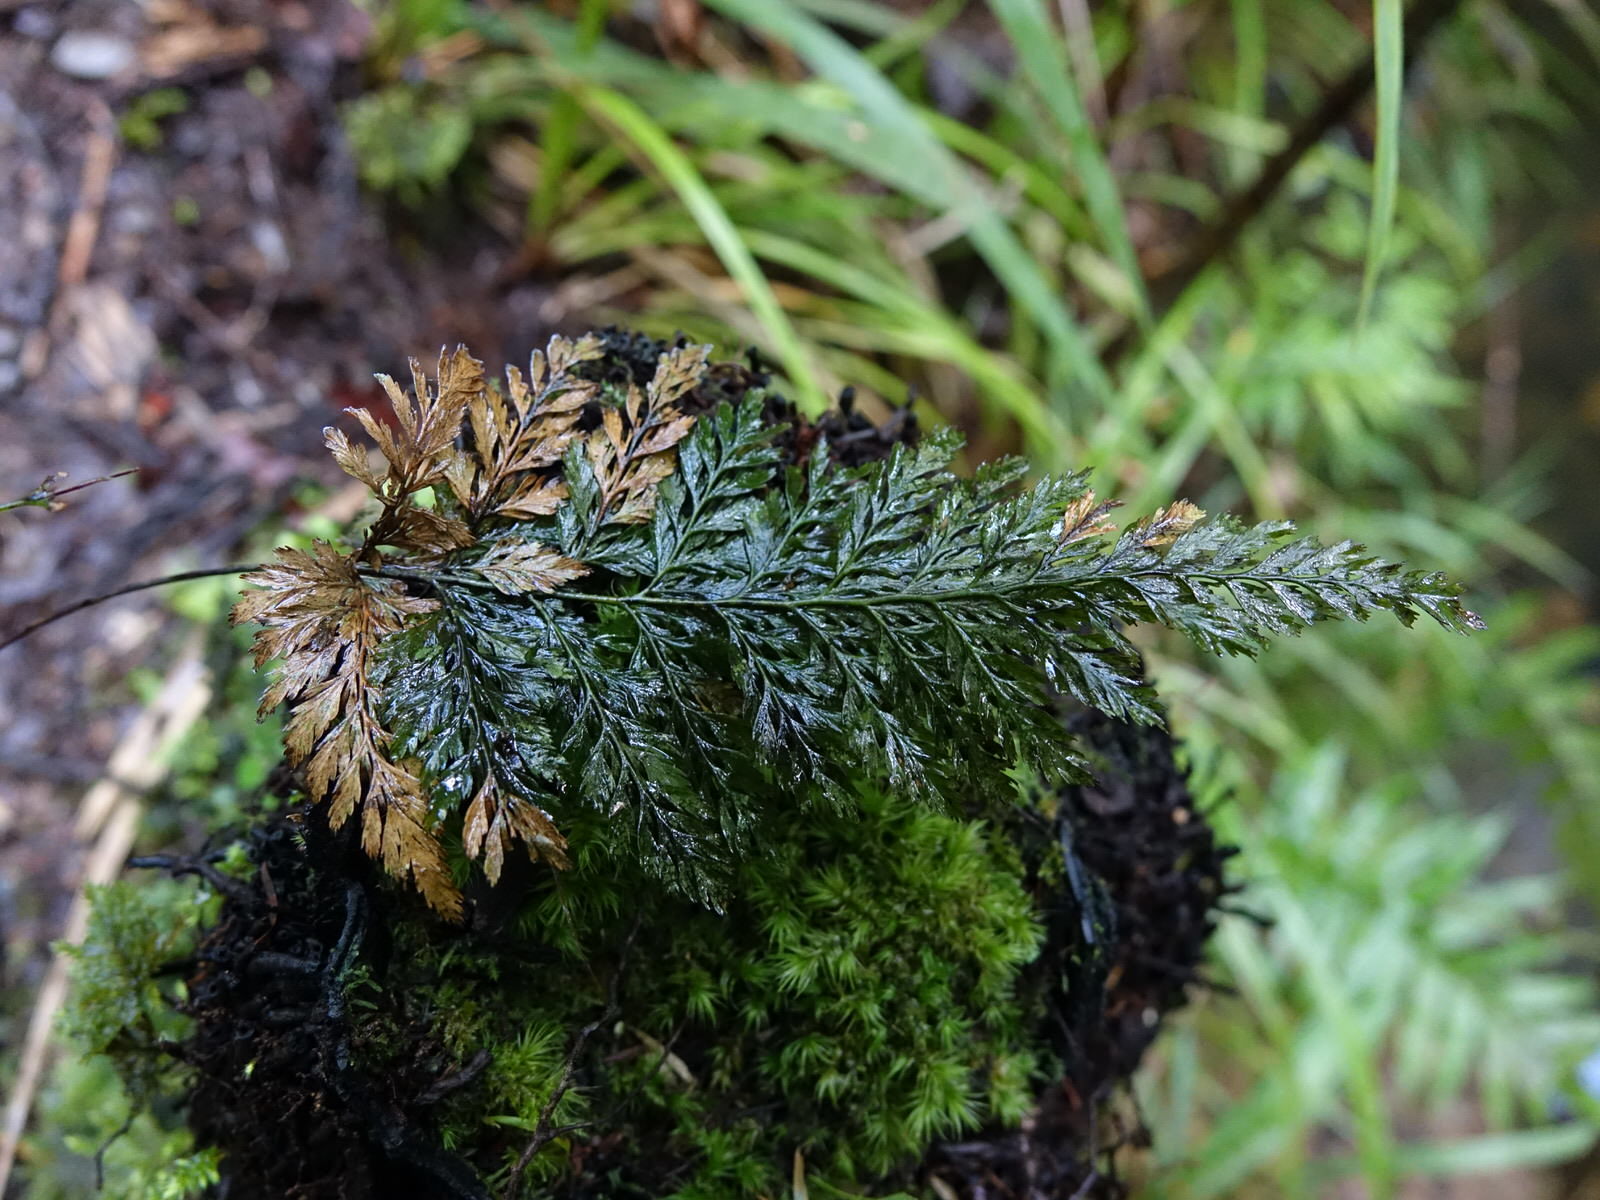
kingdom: Plantae
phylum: Tracheophyta
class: Polypodiopsida
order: Hymenophyllales
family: Hymenophyllaceae
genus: Abrodictyum
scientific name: Abrodictyum elongatum
